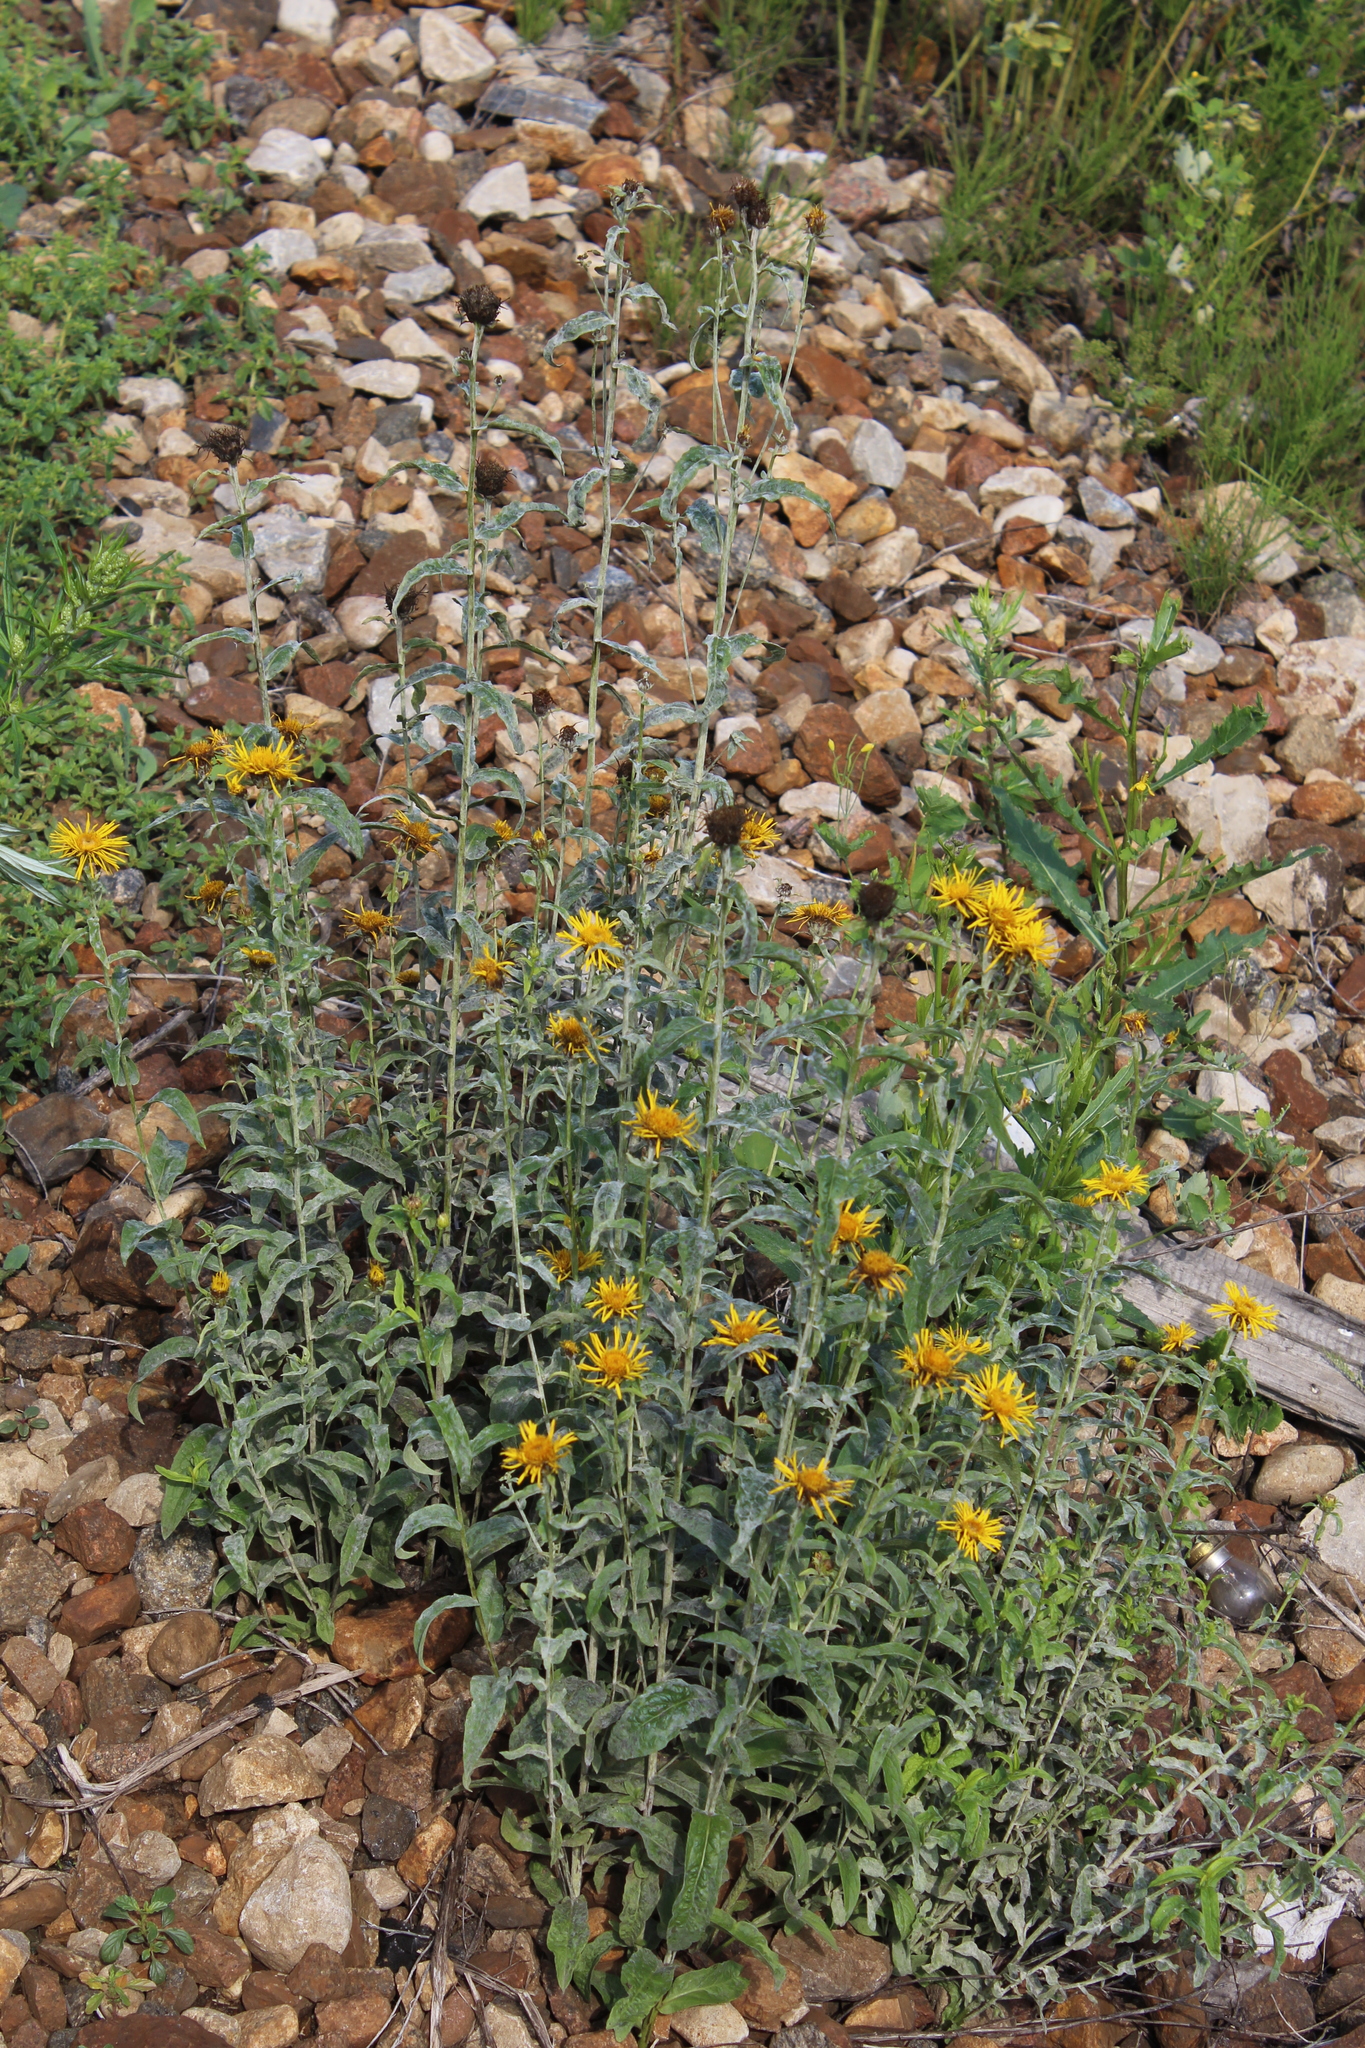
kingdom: Plantae
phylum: Tracheophyta
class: Magnoliopsida
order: Asterales
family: Asteraceae
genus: Pentanema
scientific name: Pentanema salicinum
